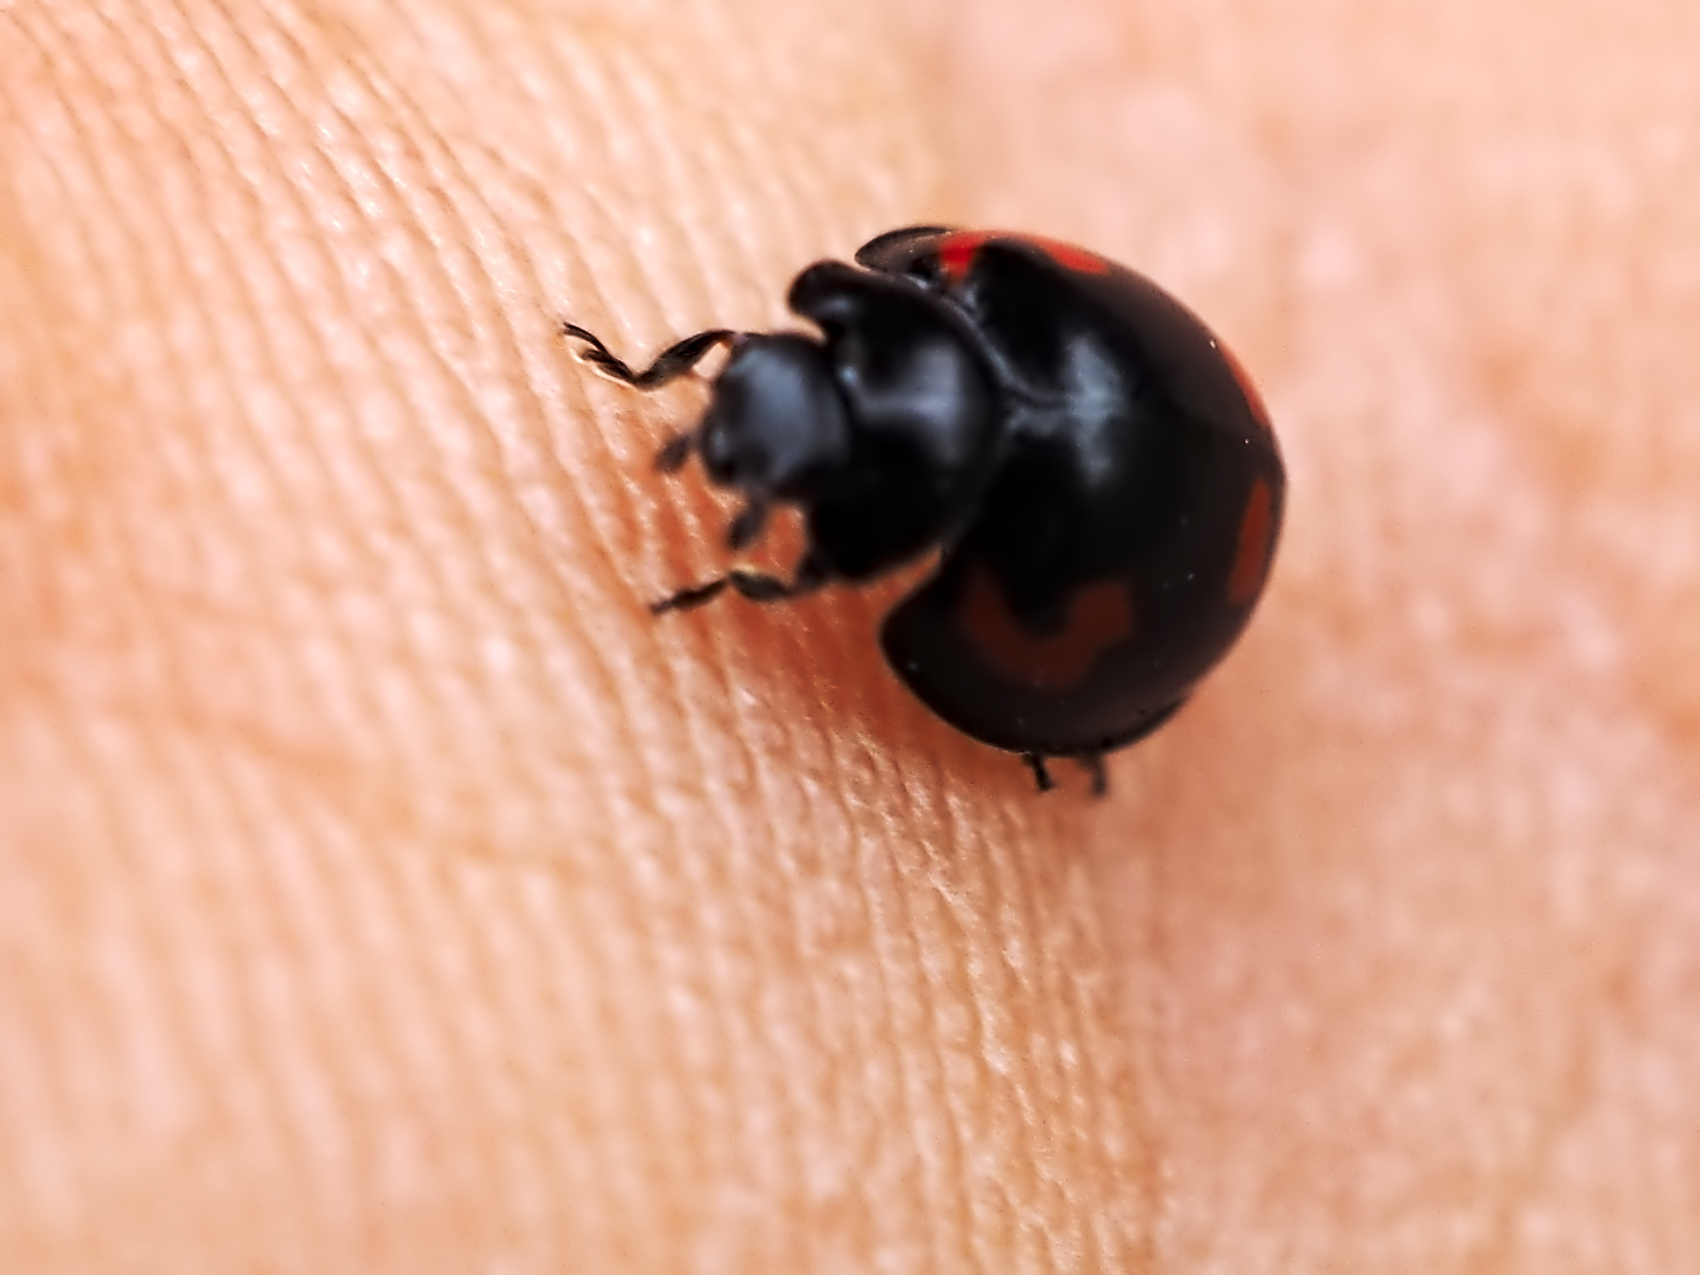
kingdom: Animalia
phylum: Arthropoda
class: Insecta
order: Coleoptera
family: Coccinellidae
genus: Brumus
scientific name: Brumus quadripustulatus
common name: Ladybird beetle
